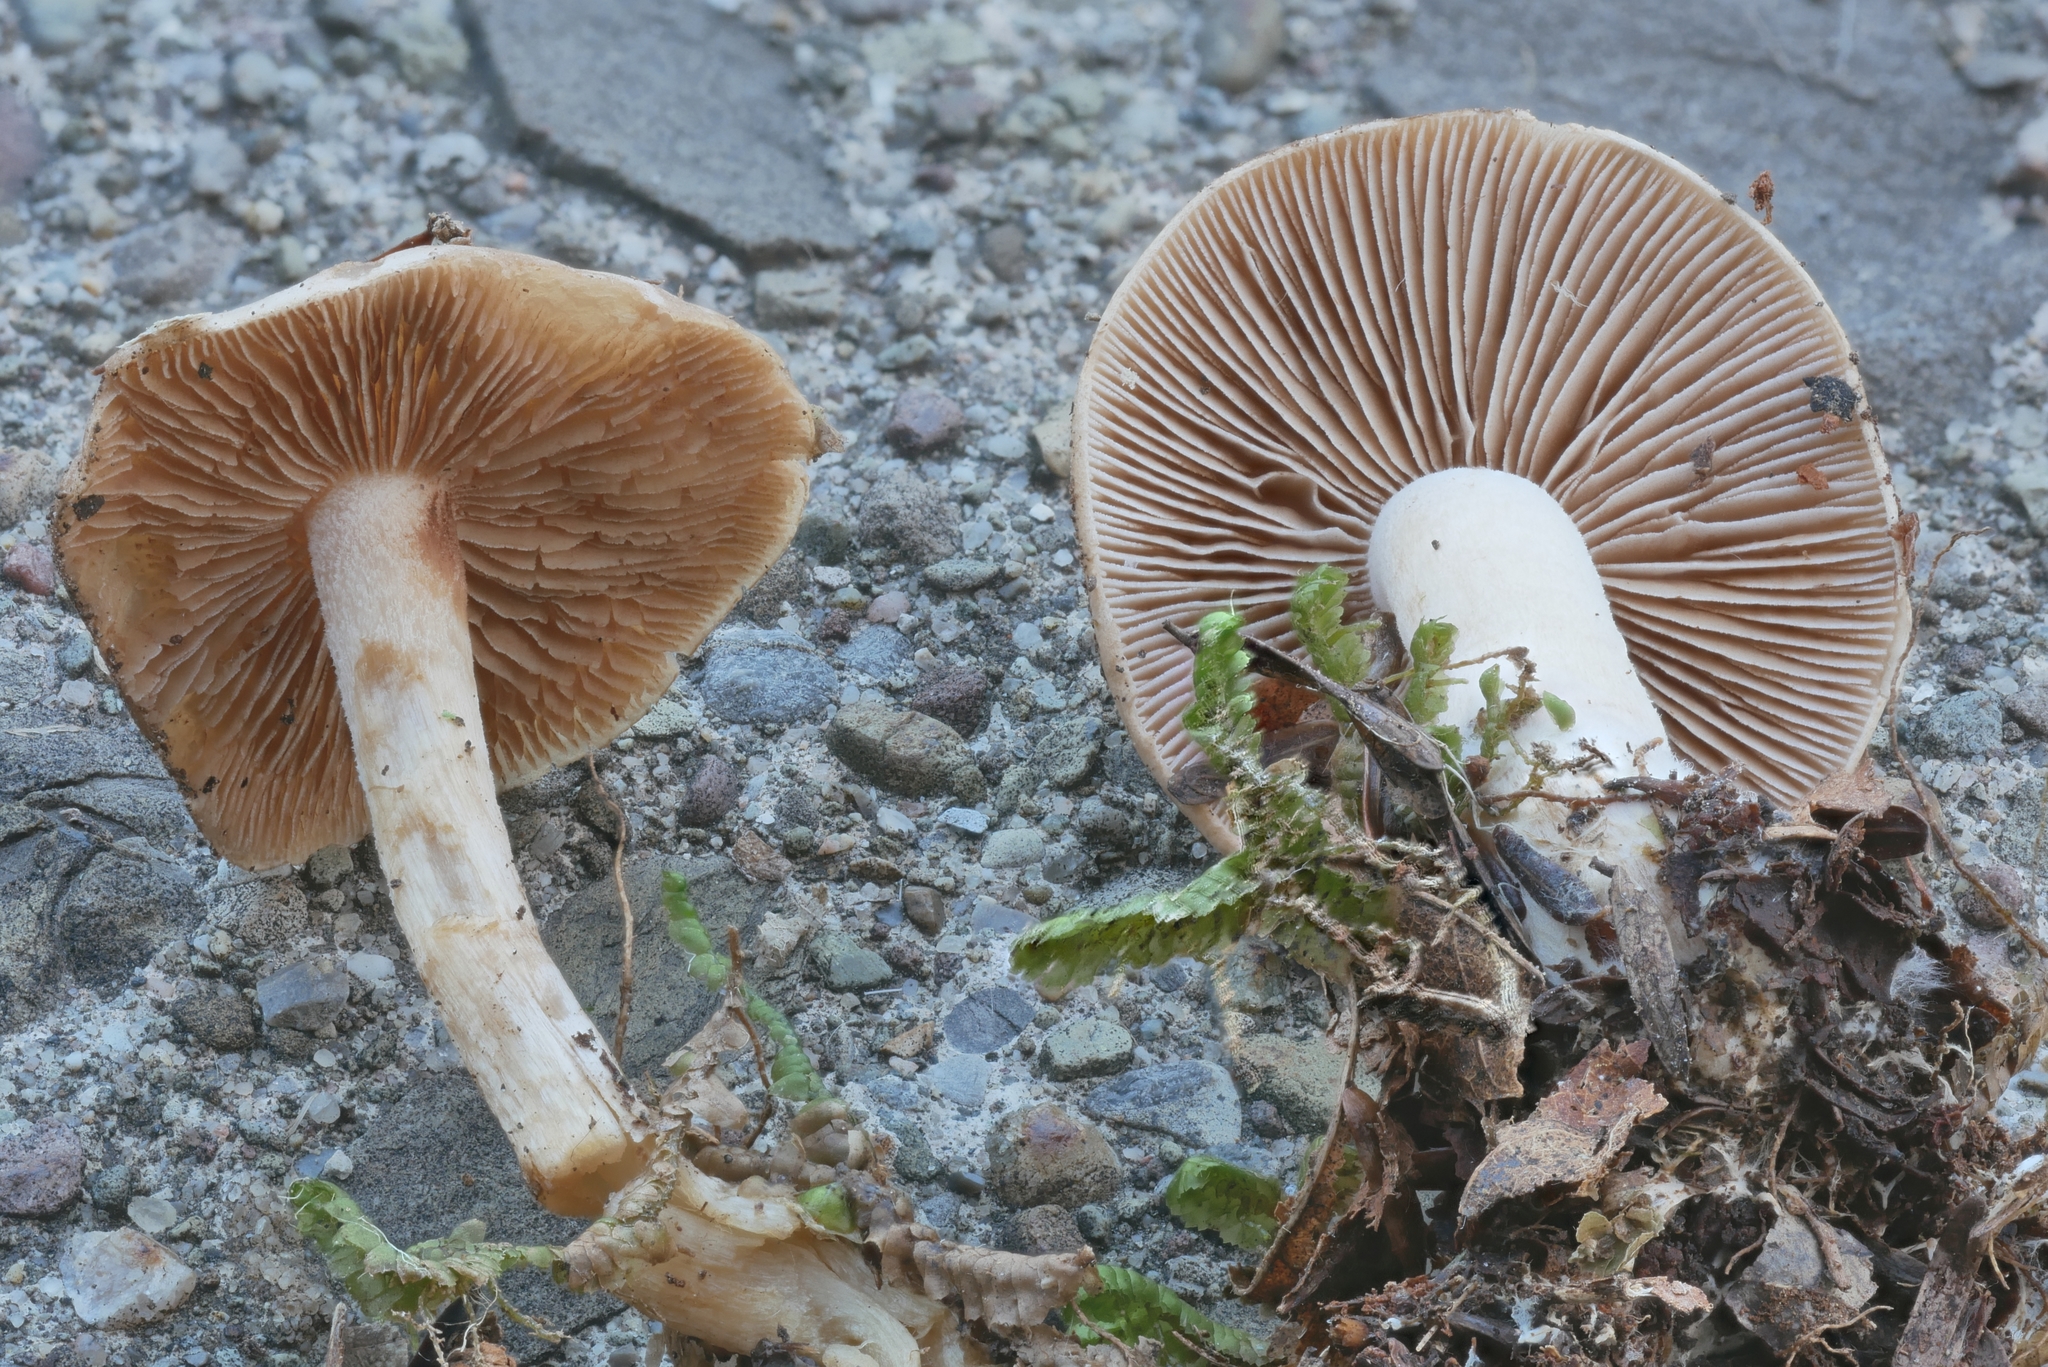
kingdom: Fungi
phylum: Basidiomycota
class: Agaricomycetes
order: Agaricales
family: Hymenogastraceae
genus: Hebeloma
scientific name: Hebeloma leucosarx
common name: Birch poisonpie
